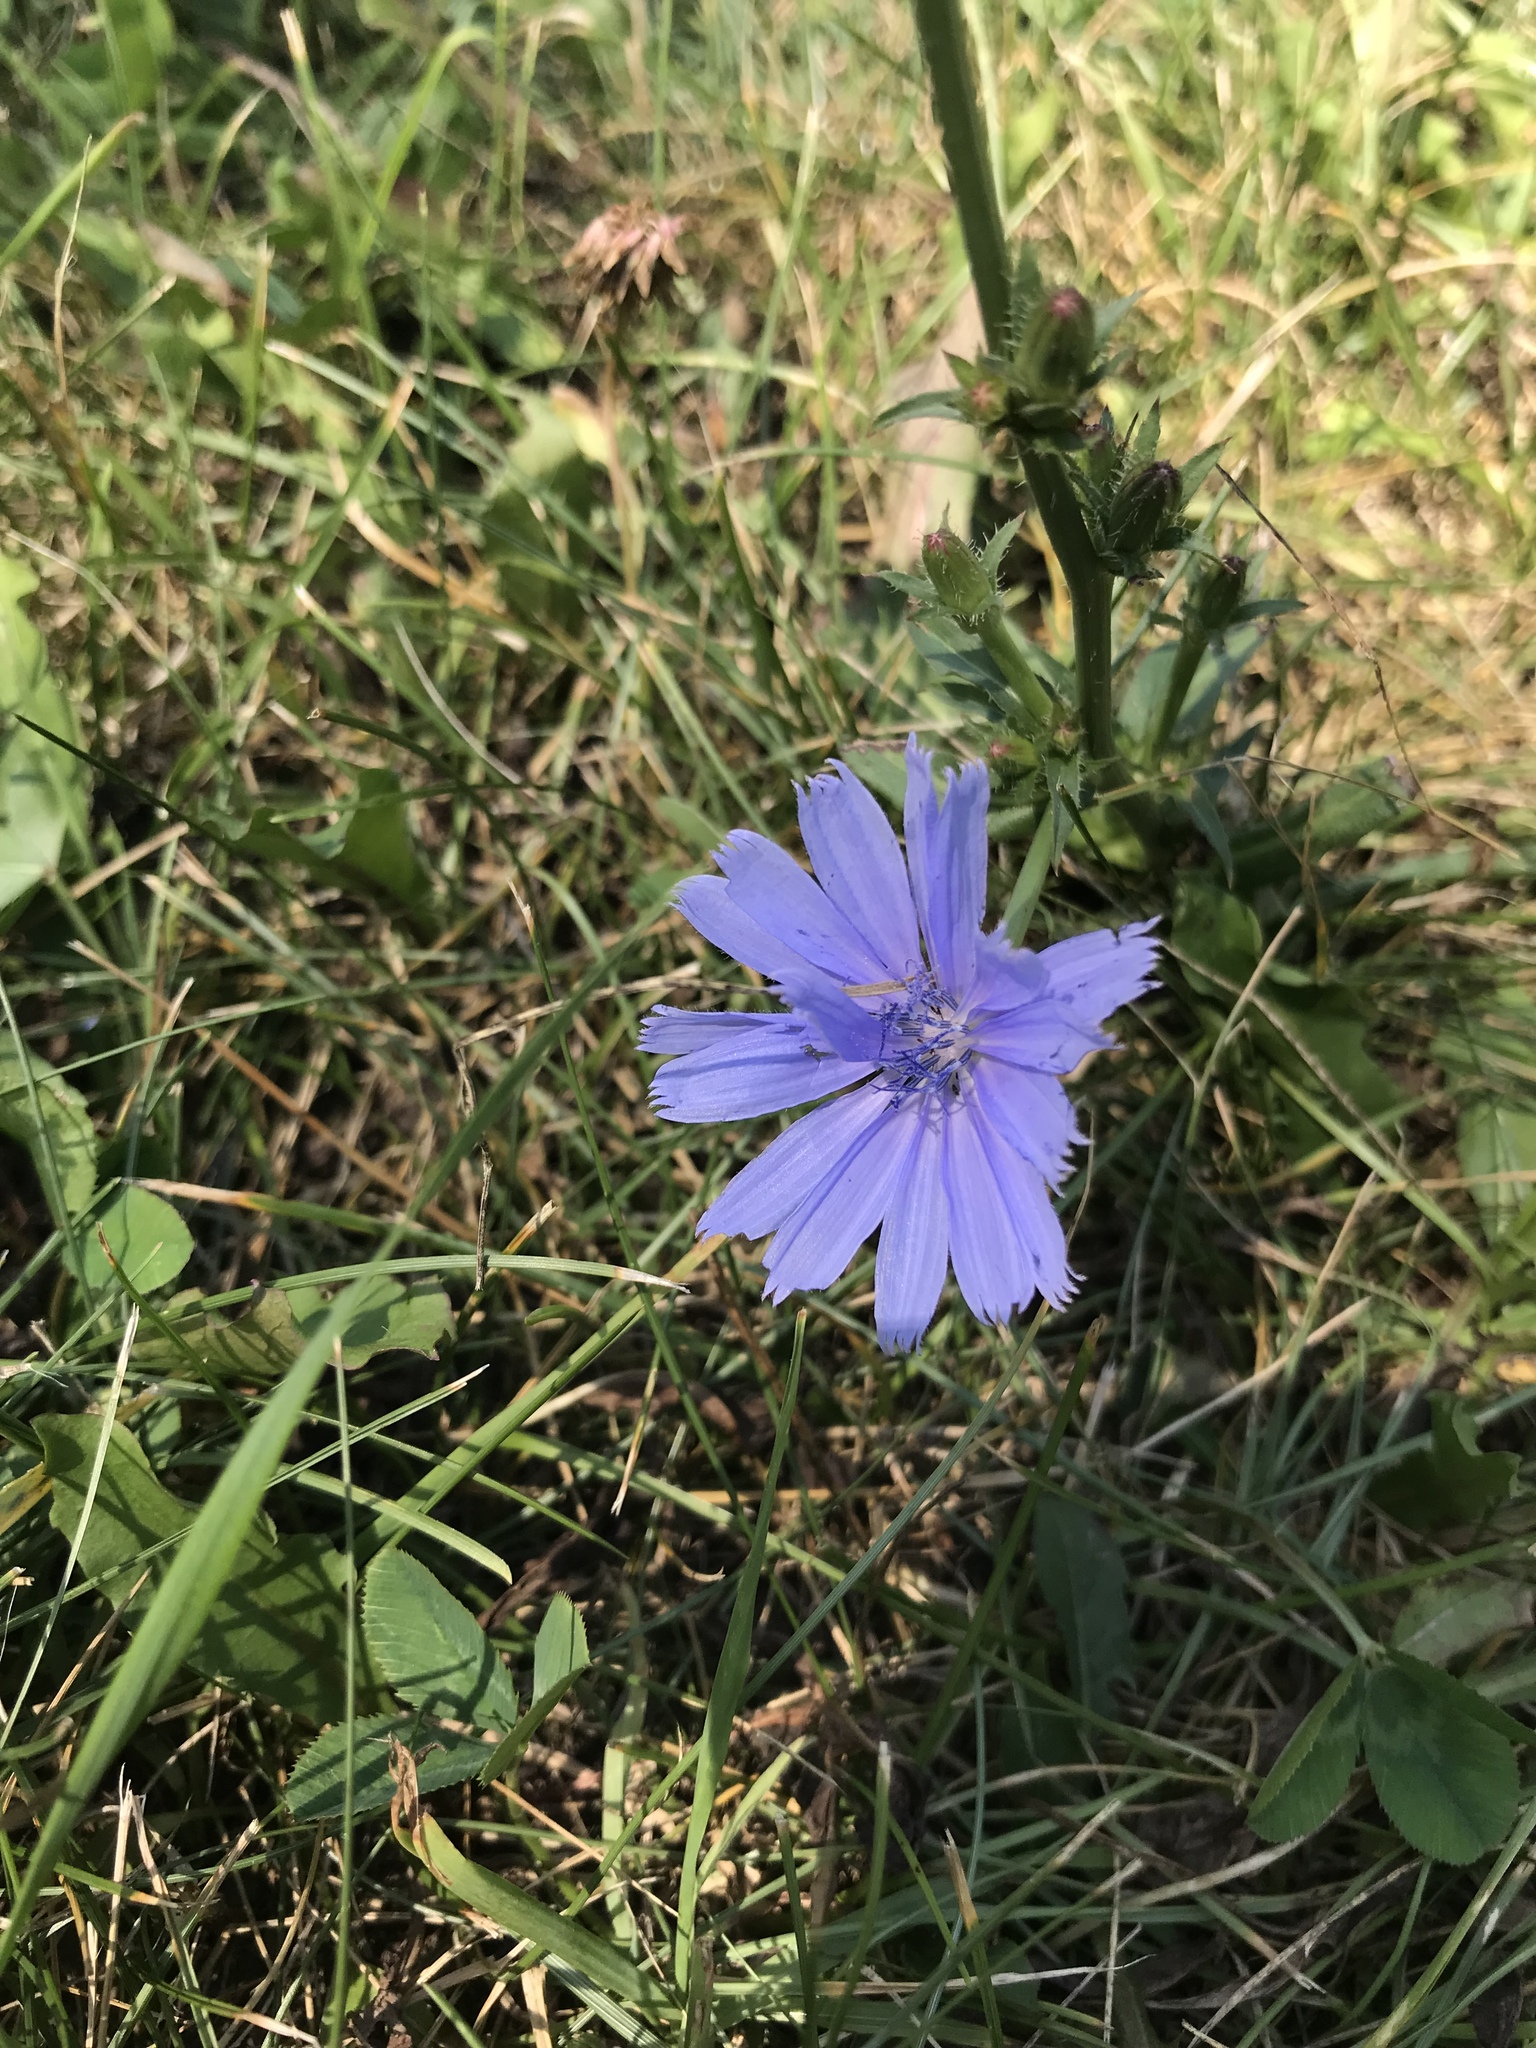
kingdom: Plantae
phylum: Tracheophyta
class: Magnoliopsida
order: Asterales
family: Asteraceae
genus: Cichorium
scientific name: Cichorium intybus
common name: Chicory
